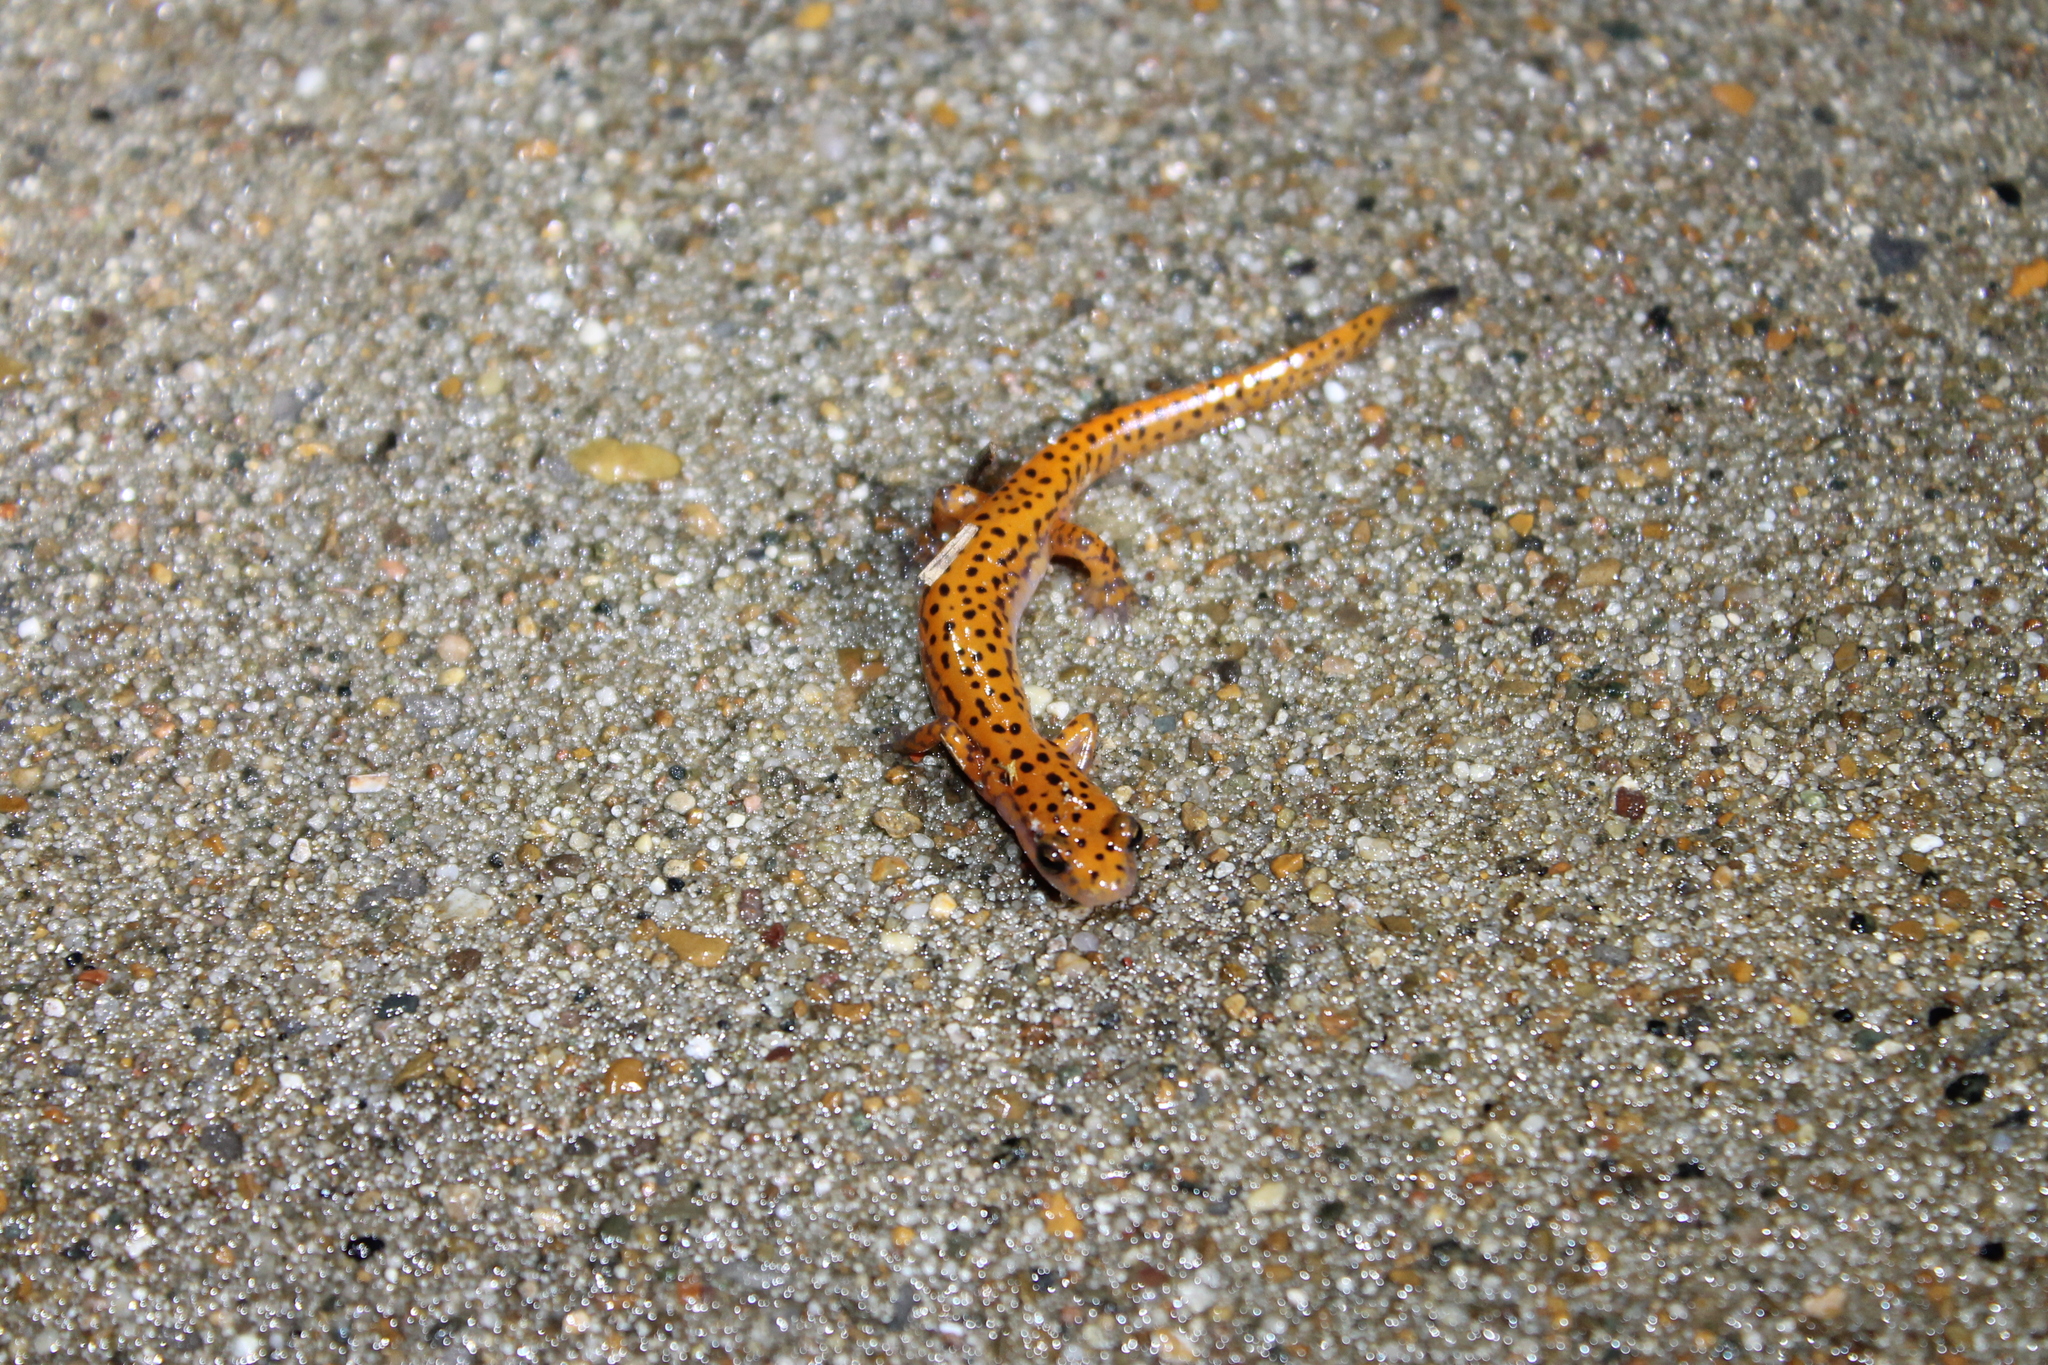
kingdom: Animalia
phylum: Chordata
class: Amphibia
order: Caudata
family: Plethodontidae
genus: Eurycea
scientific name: Eurycea lucifuga
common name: Cave salamander
